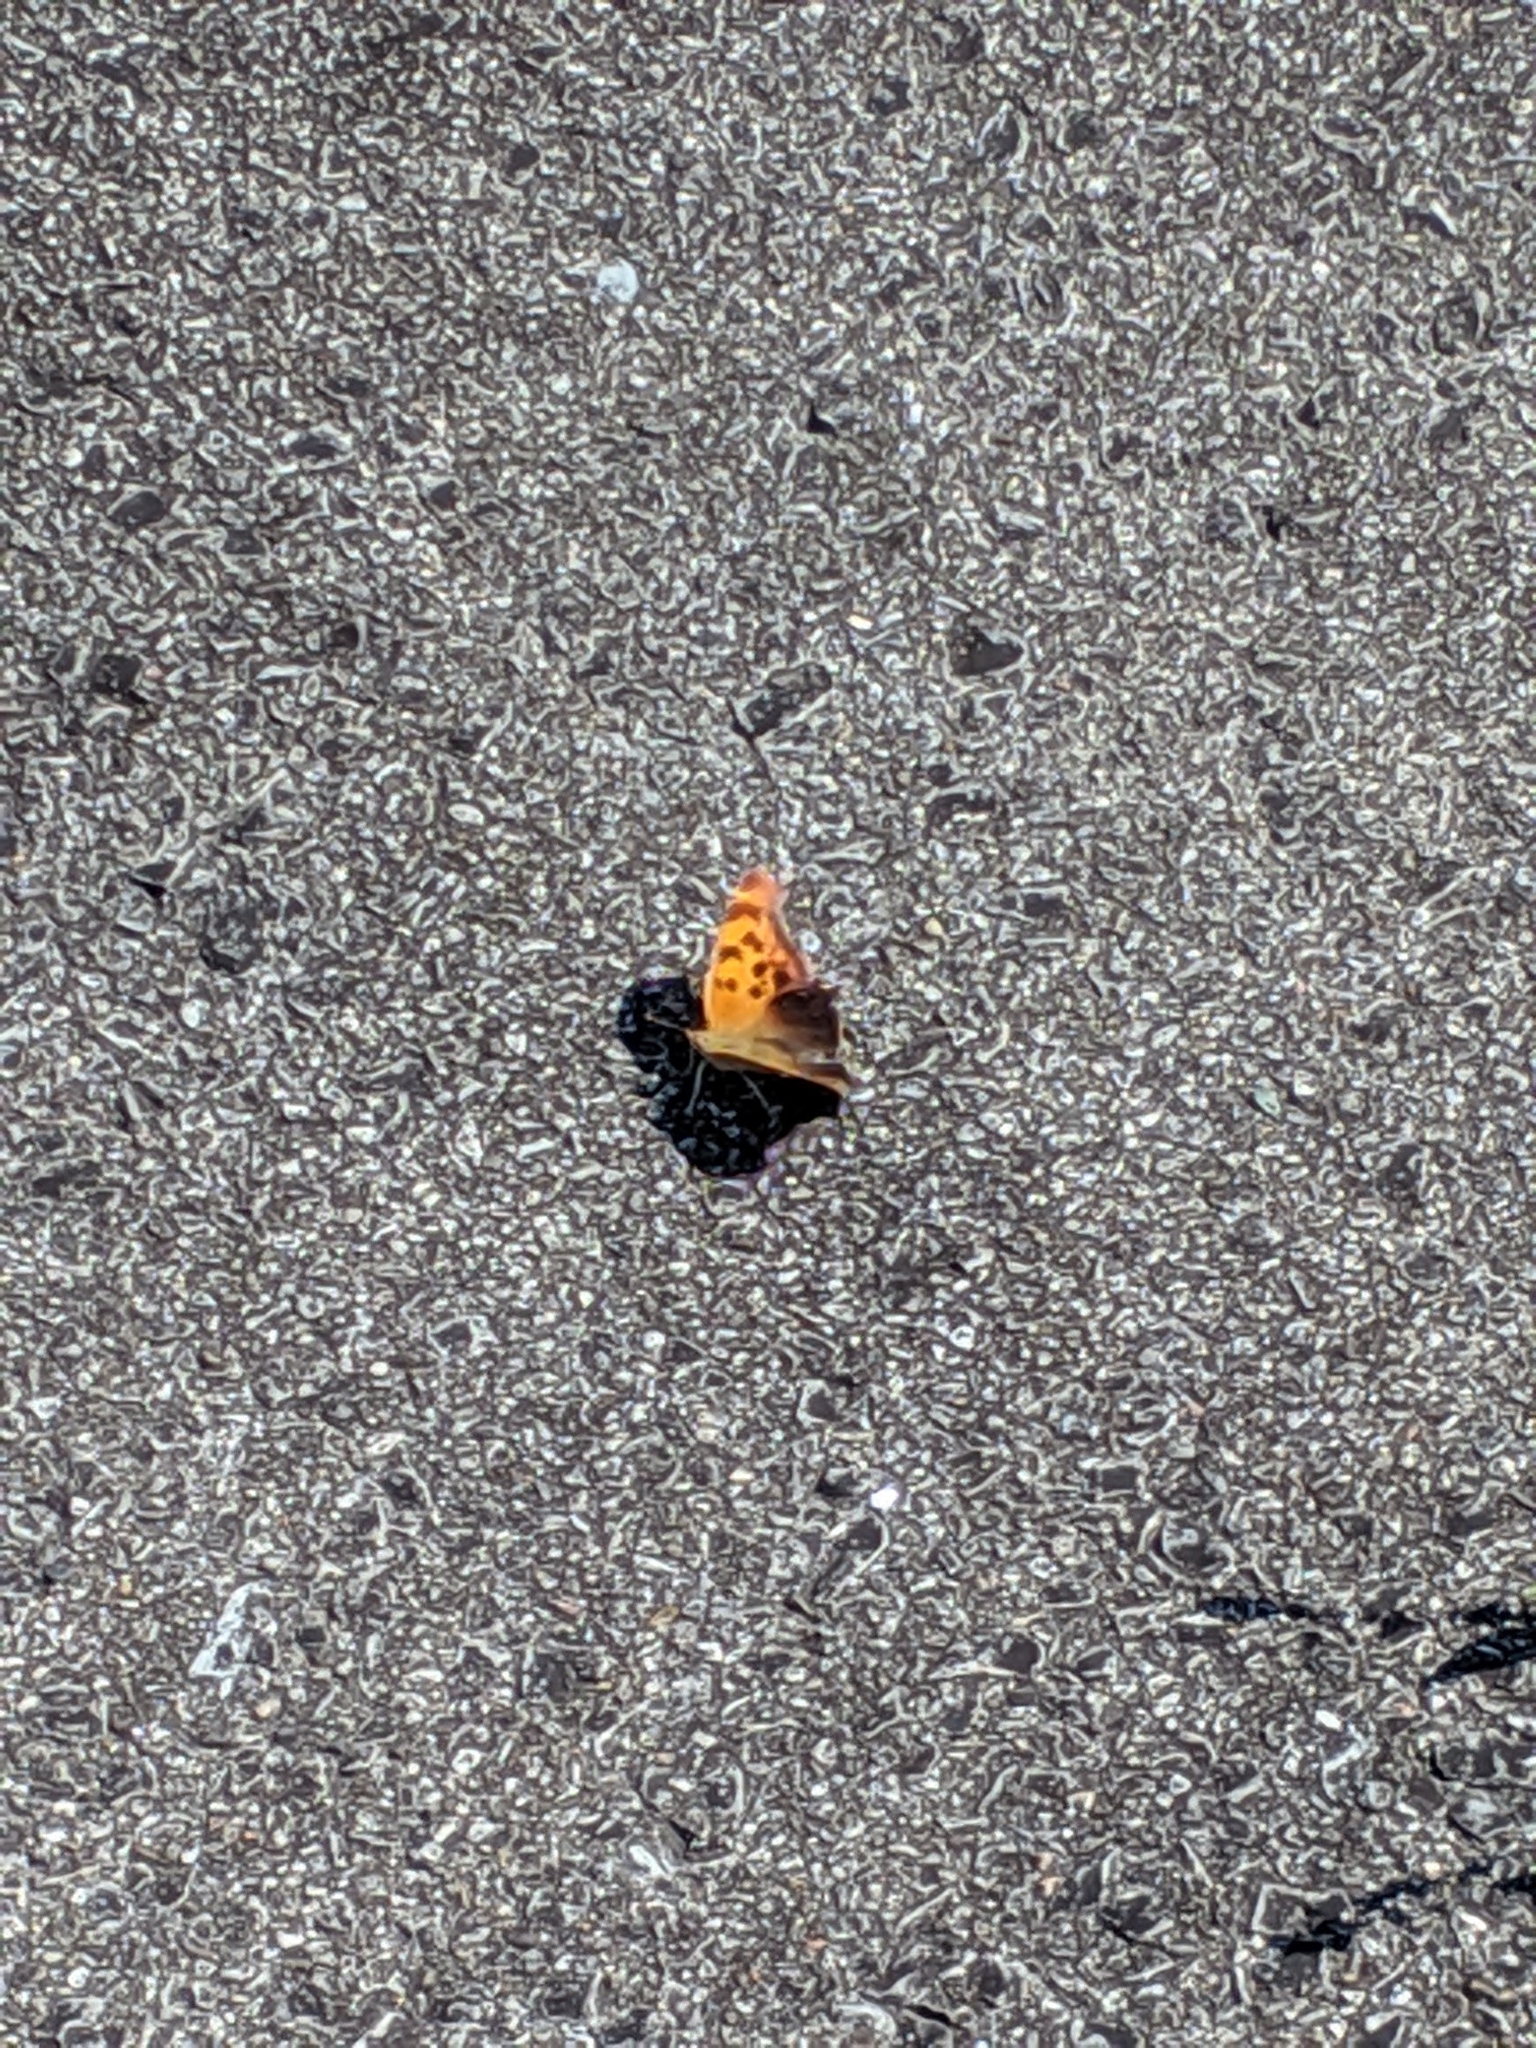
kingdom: Animalia
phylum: Arthropoda
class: Insecta
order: Lepidoptera
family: Nymphalidae
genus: Polygonia
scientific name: Polygonia comma
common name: Eastern comma
